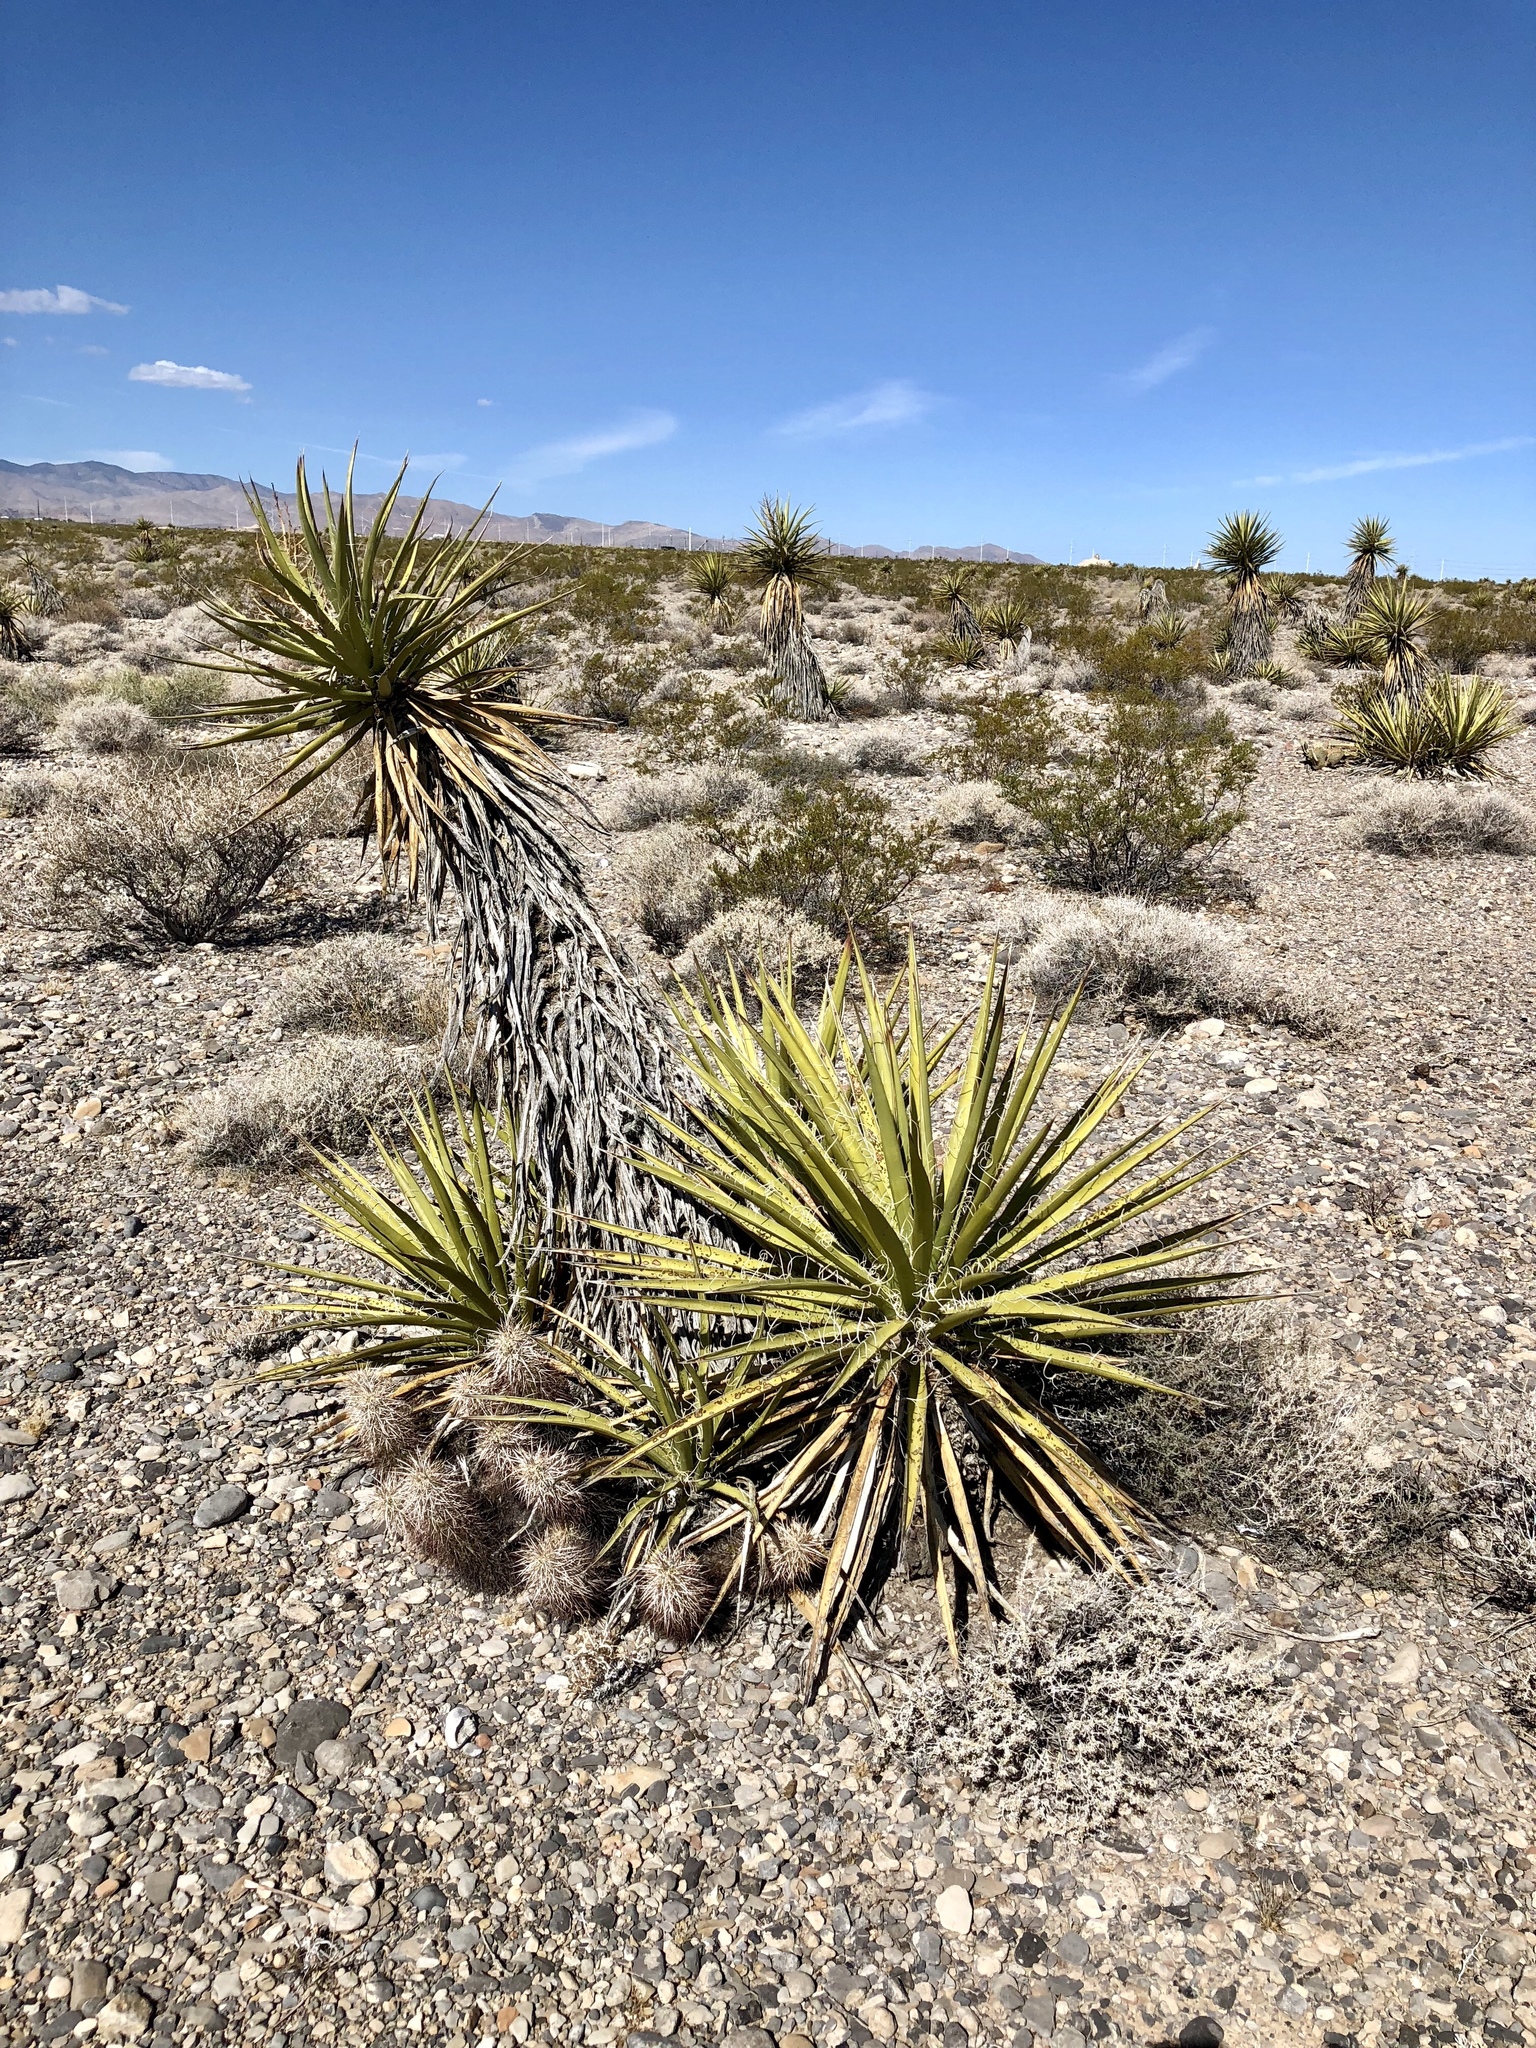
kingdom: Plantae
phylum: Tracheophyta
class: Liliopsida
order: Asparagales
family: Asparagaceae
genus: Yucca
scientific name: Yucca schidigera
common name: Mojave yucca
